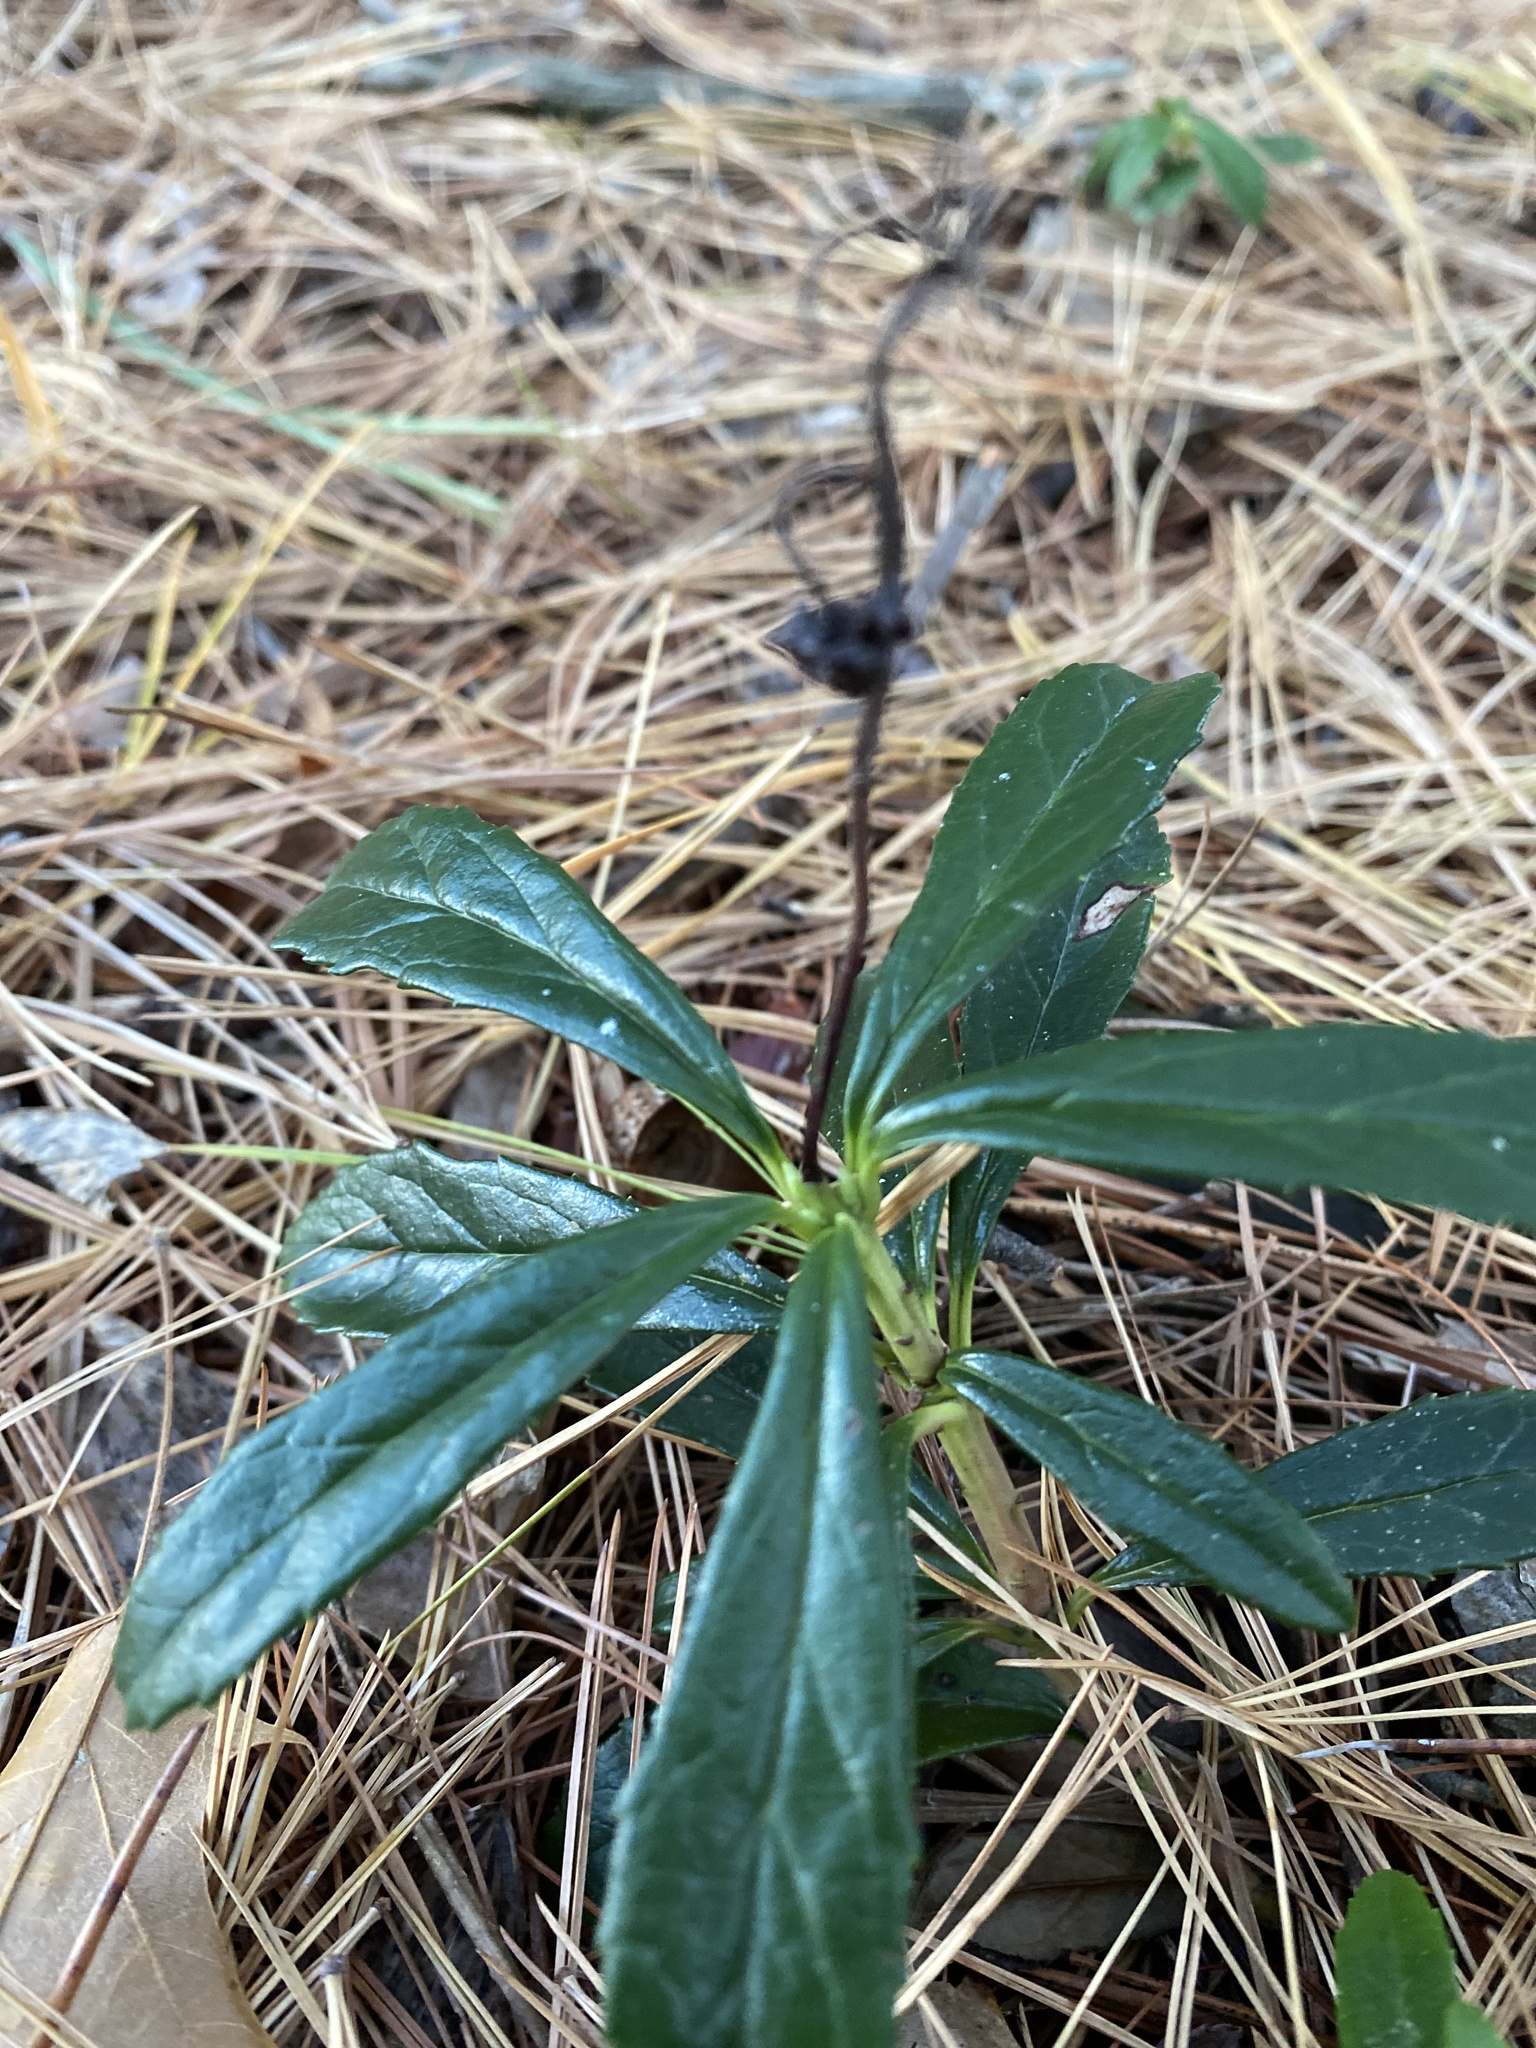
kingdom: Plantae
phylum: Tracheophyta
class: Magnoliopsida
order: Ericales
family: Ericaceae
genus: Chimaphila
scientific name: Chimaphila umbellata
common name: Pipsissewa
